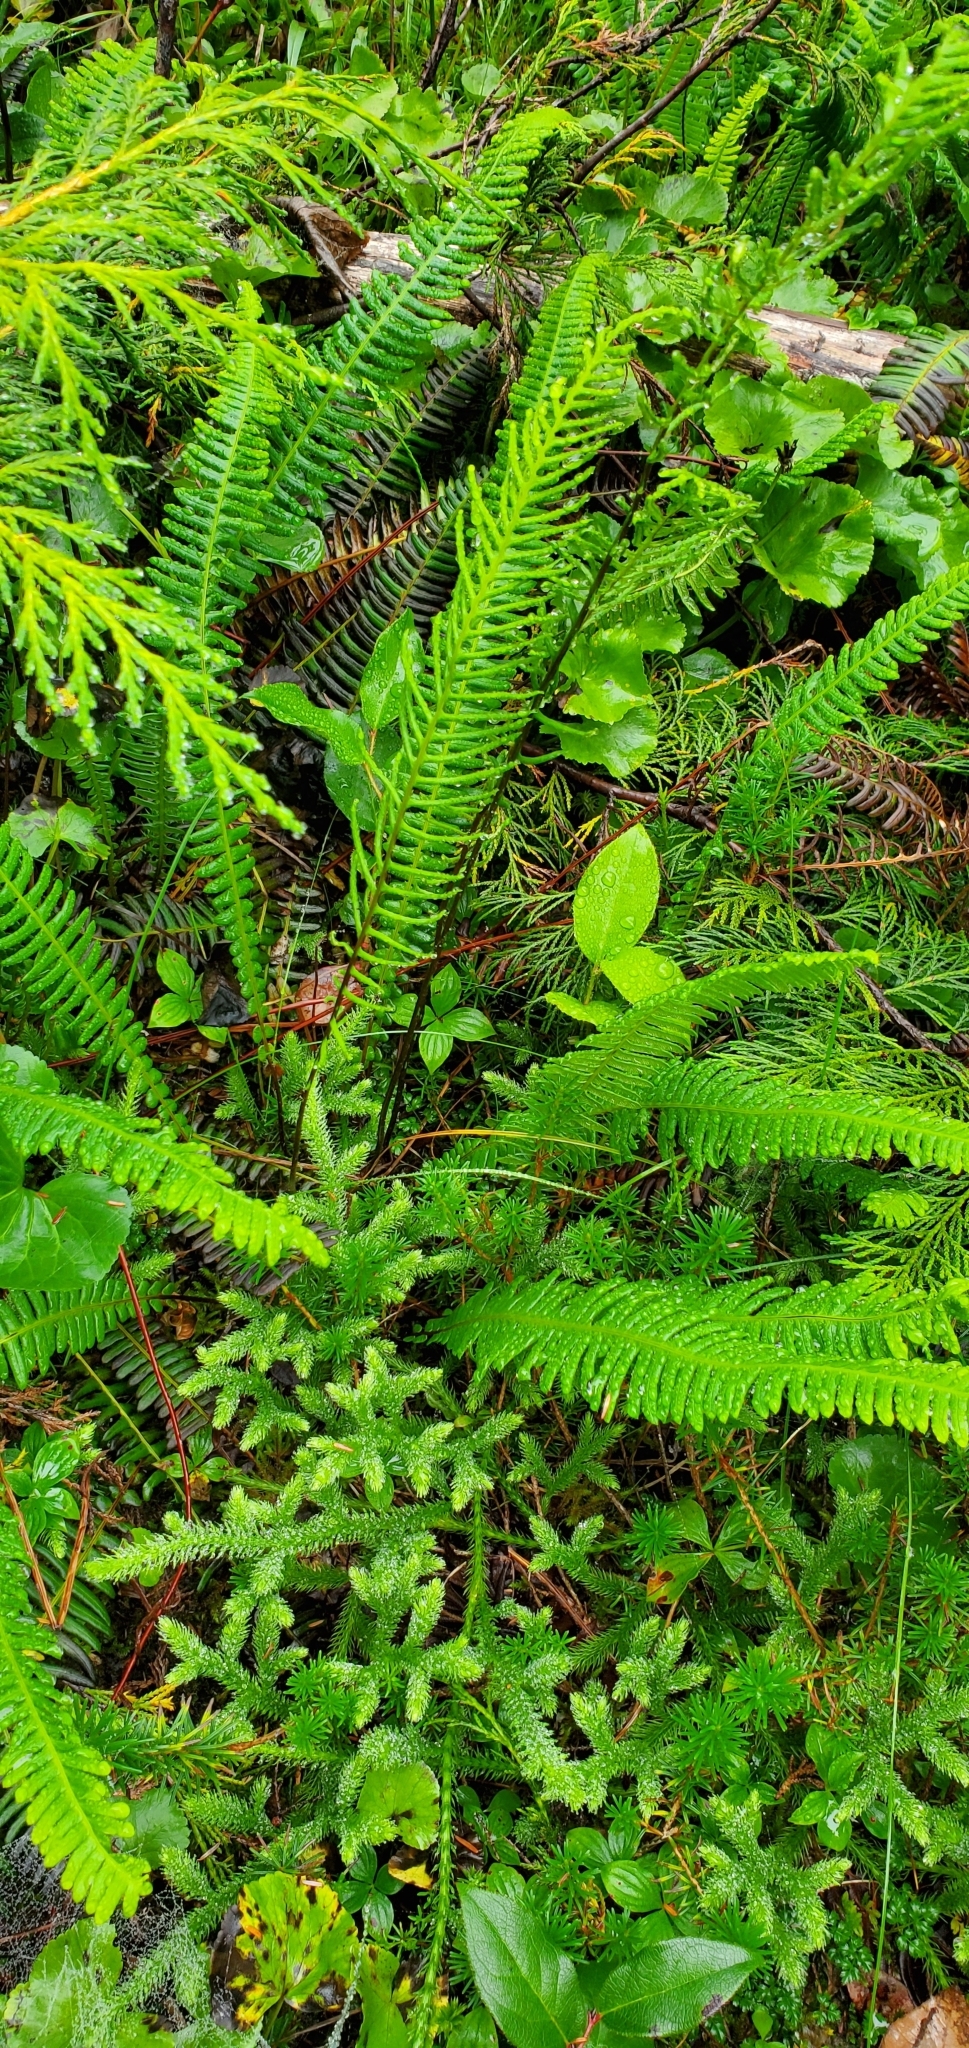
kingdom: Plantae
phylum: Tracheophyta
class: Polypodiopsida
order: Polypodiales
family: Blechnaceae
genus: Struthiopteris
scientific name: Struthiopteris spicant
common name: Deer fern
